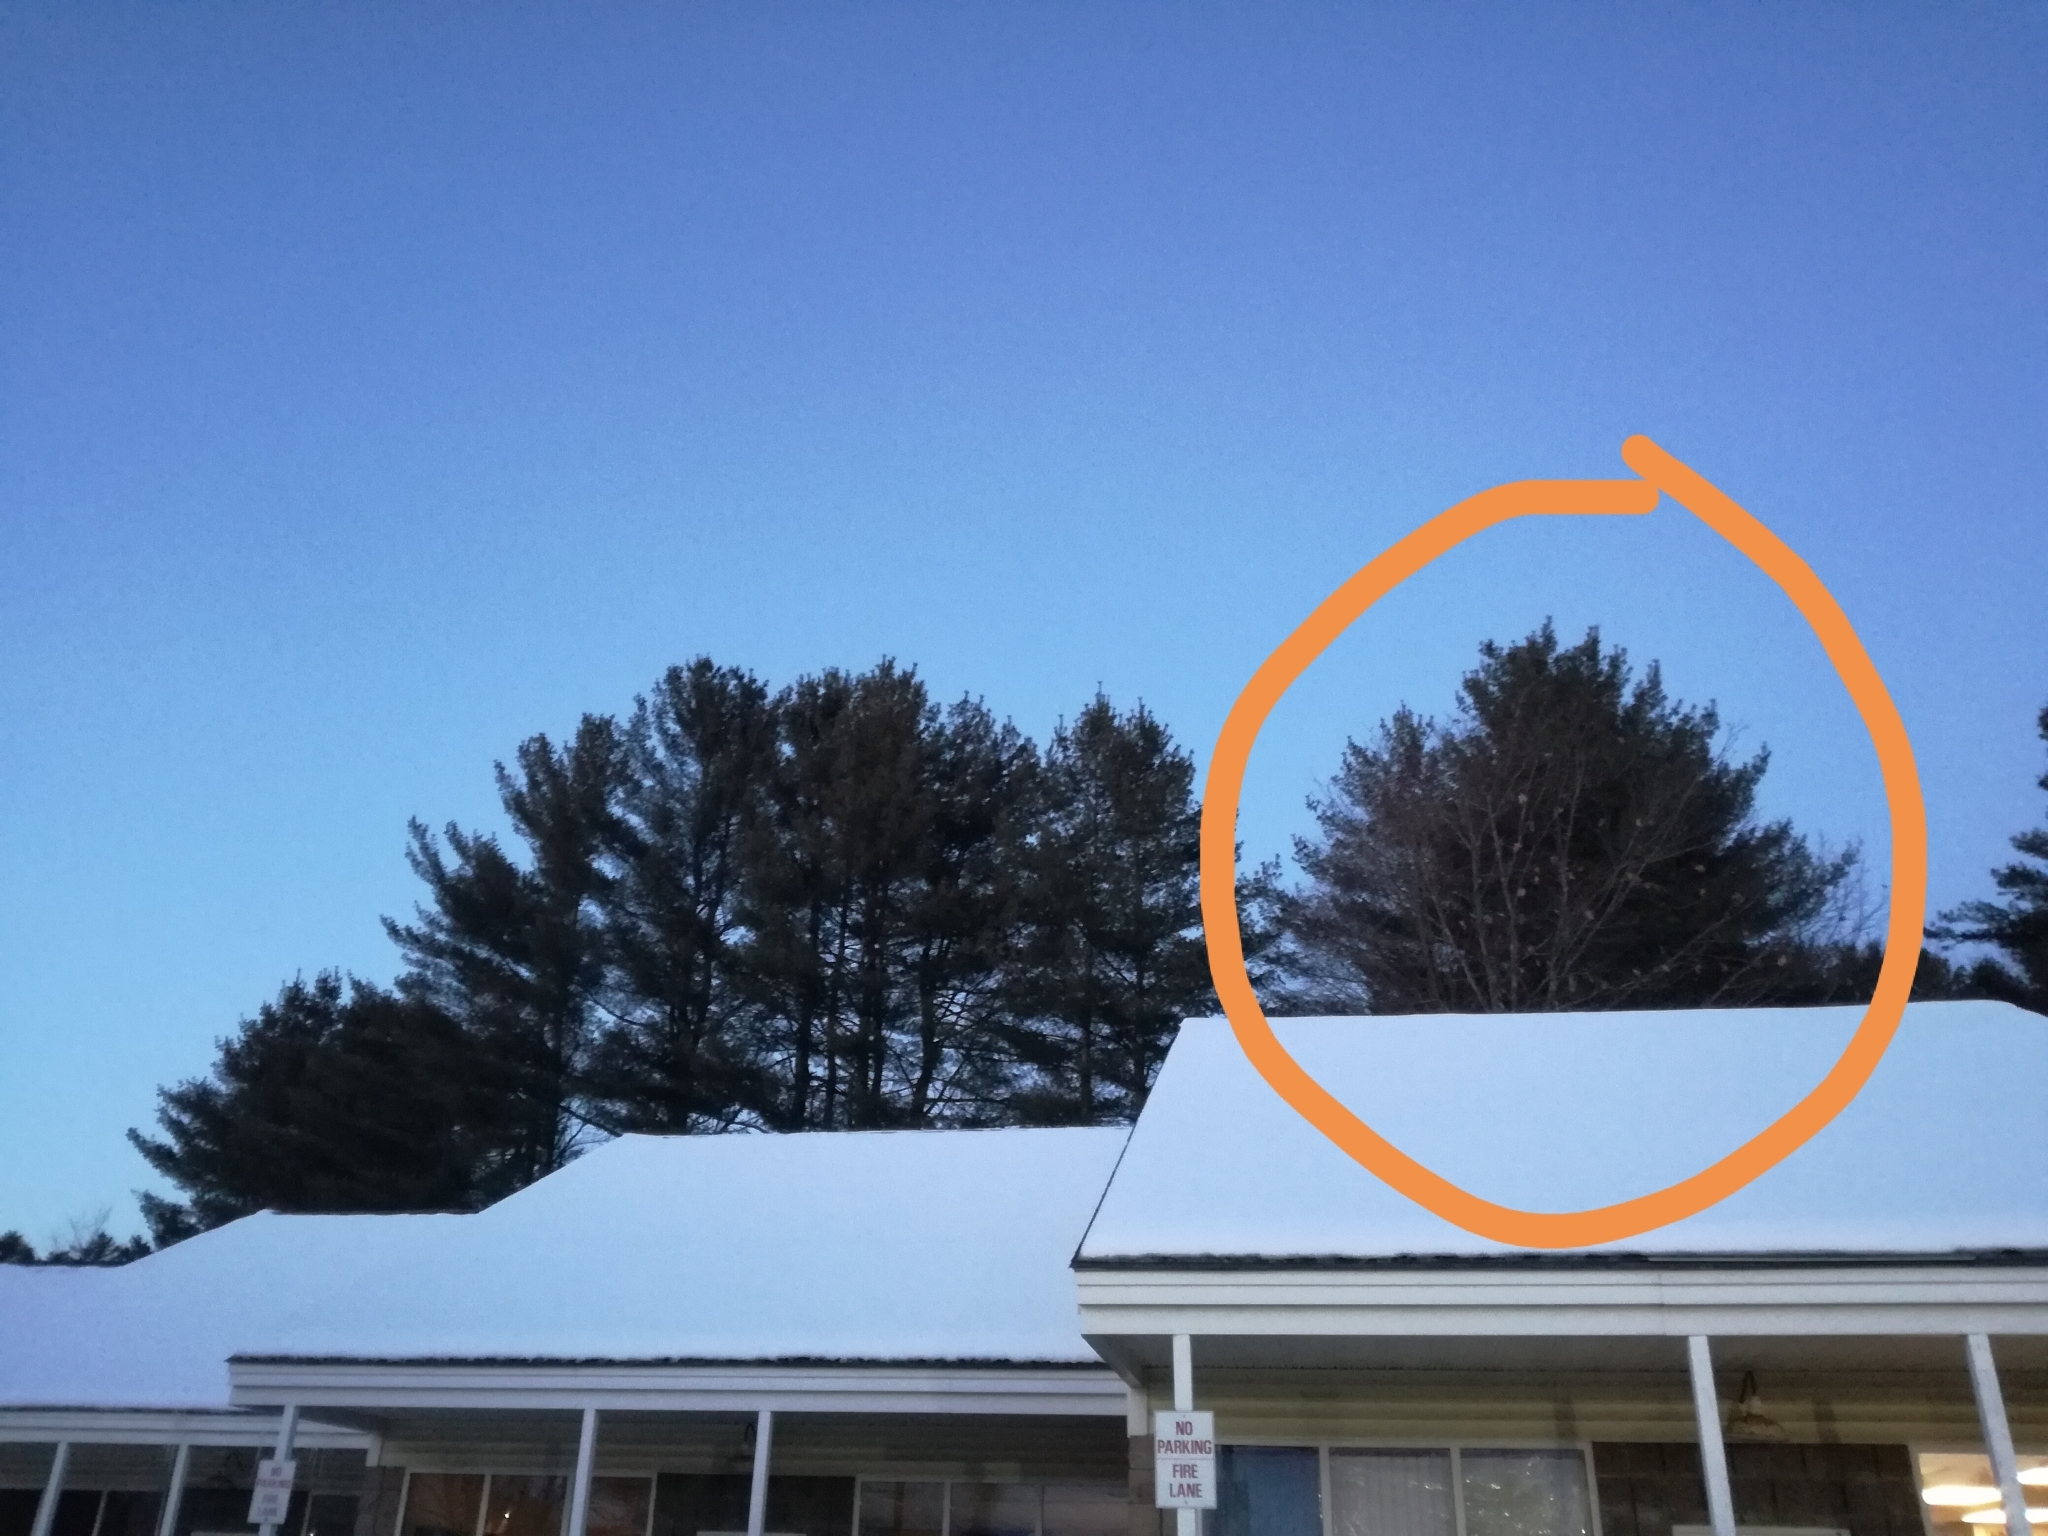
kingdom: Plantae
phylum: Tracheophyta
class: Pinopsida
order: Pinales
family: Pinaceae
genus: Pinus
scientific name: Pinus strobus
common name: Weymouth pine
